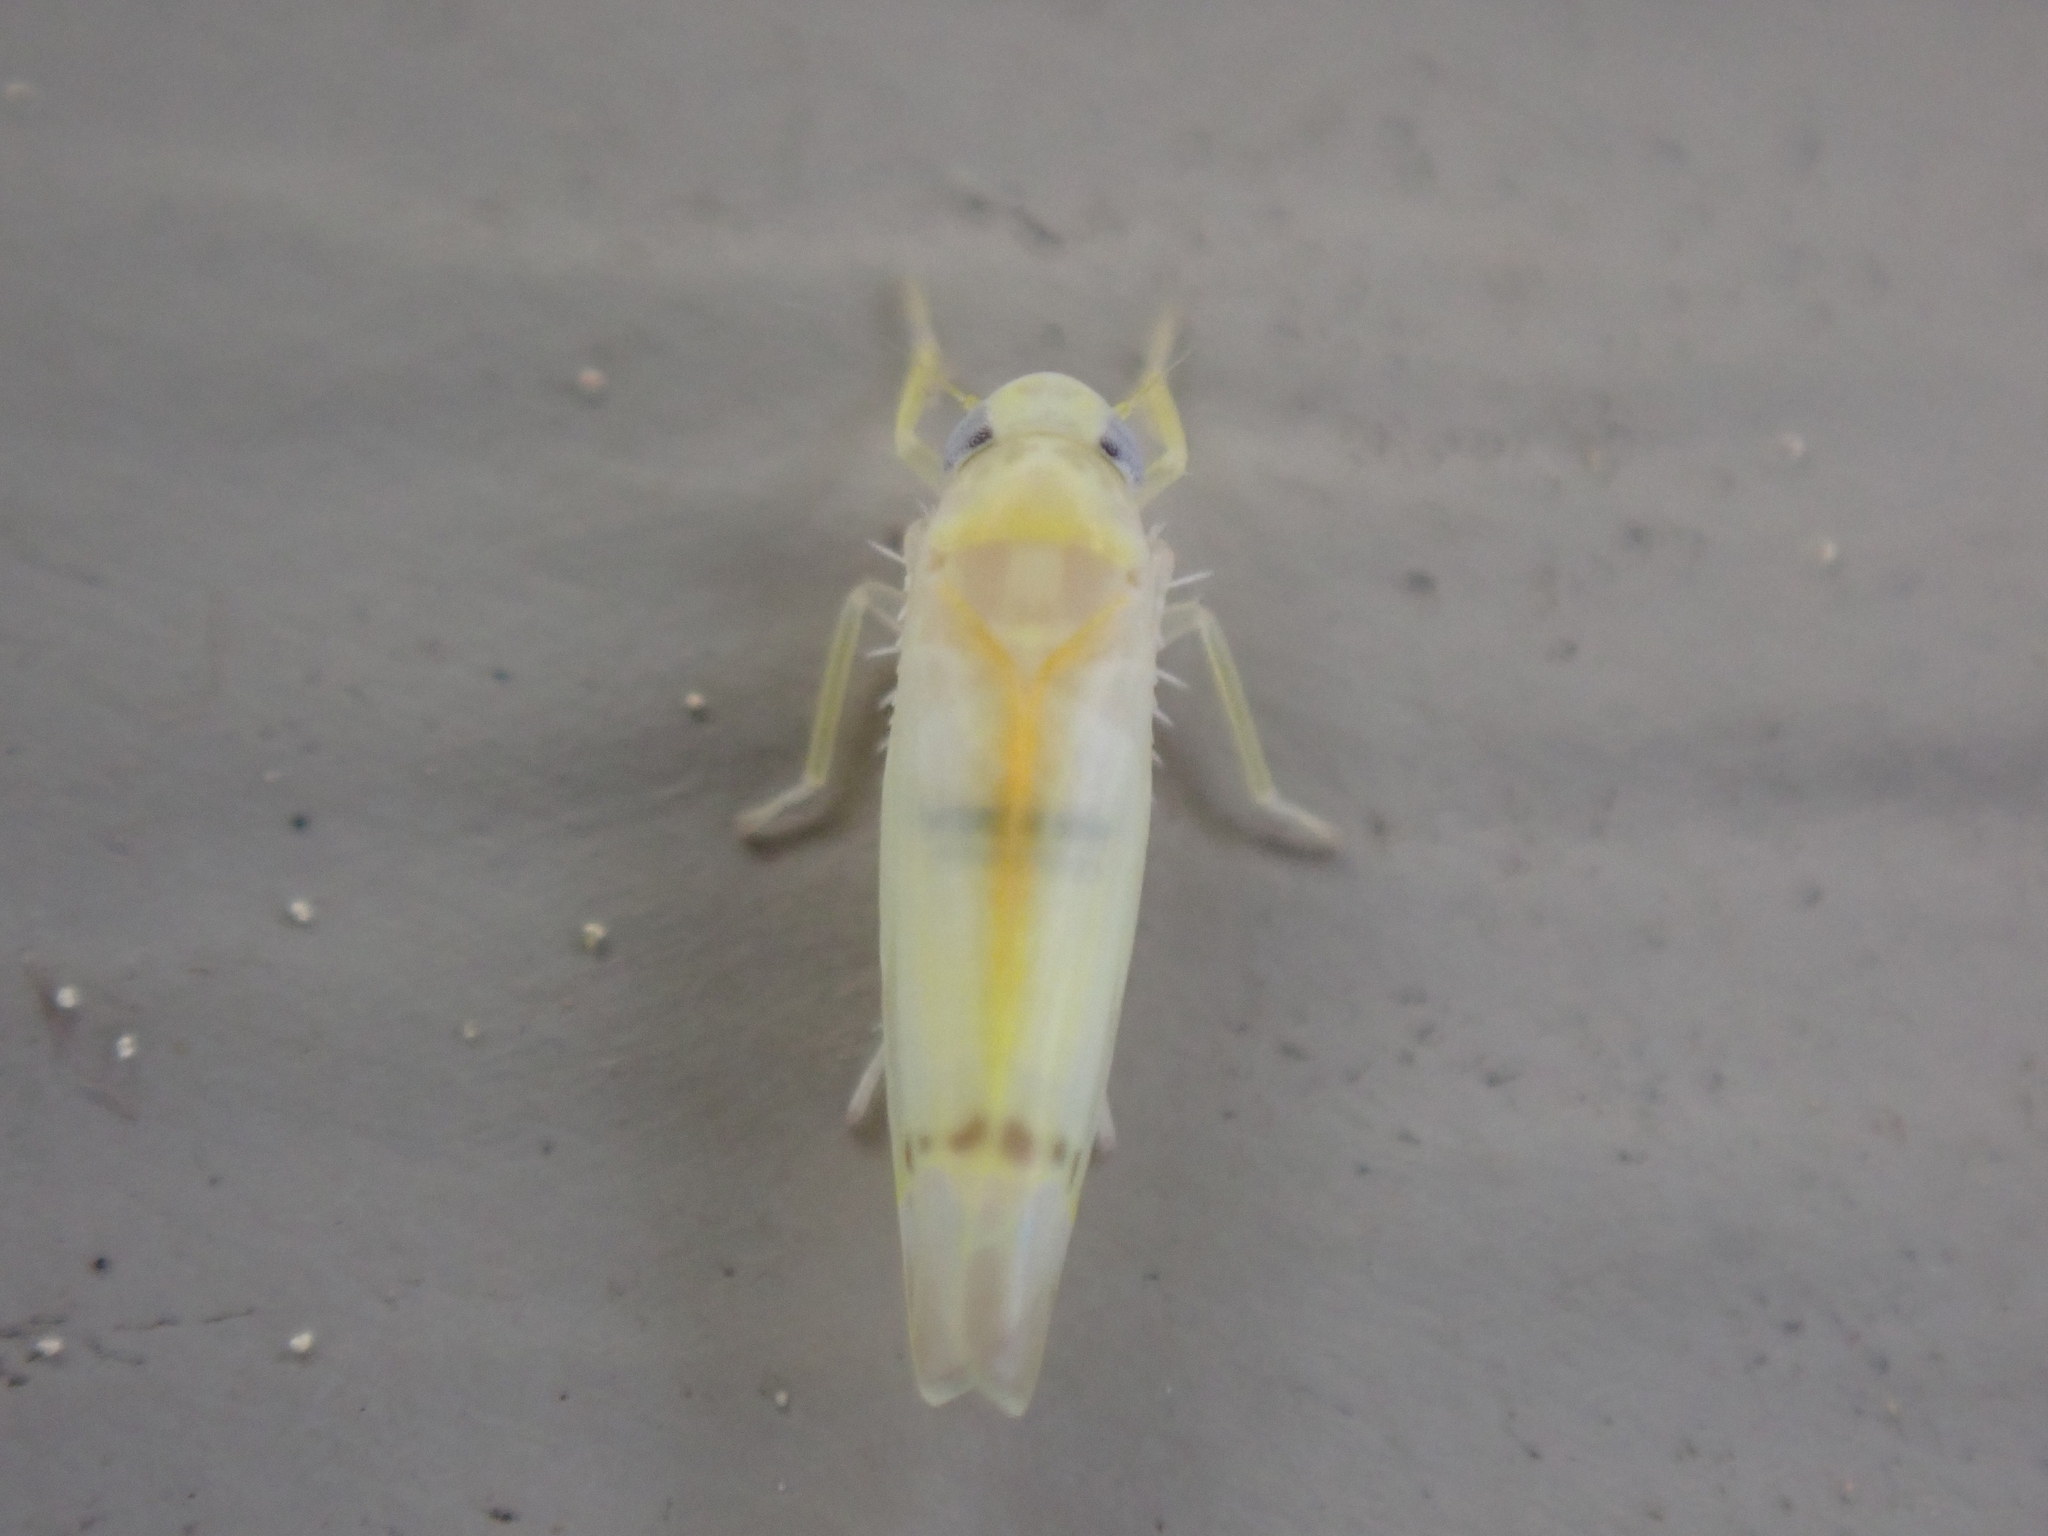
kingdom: Animalia
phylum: Arthropoda
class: Insecta
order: Hemiptera
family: Cicadellidae
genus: Ossiannilssonola
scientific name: Ossiannilssonola australis
